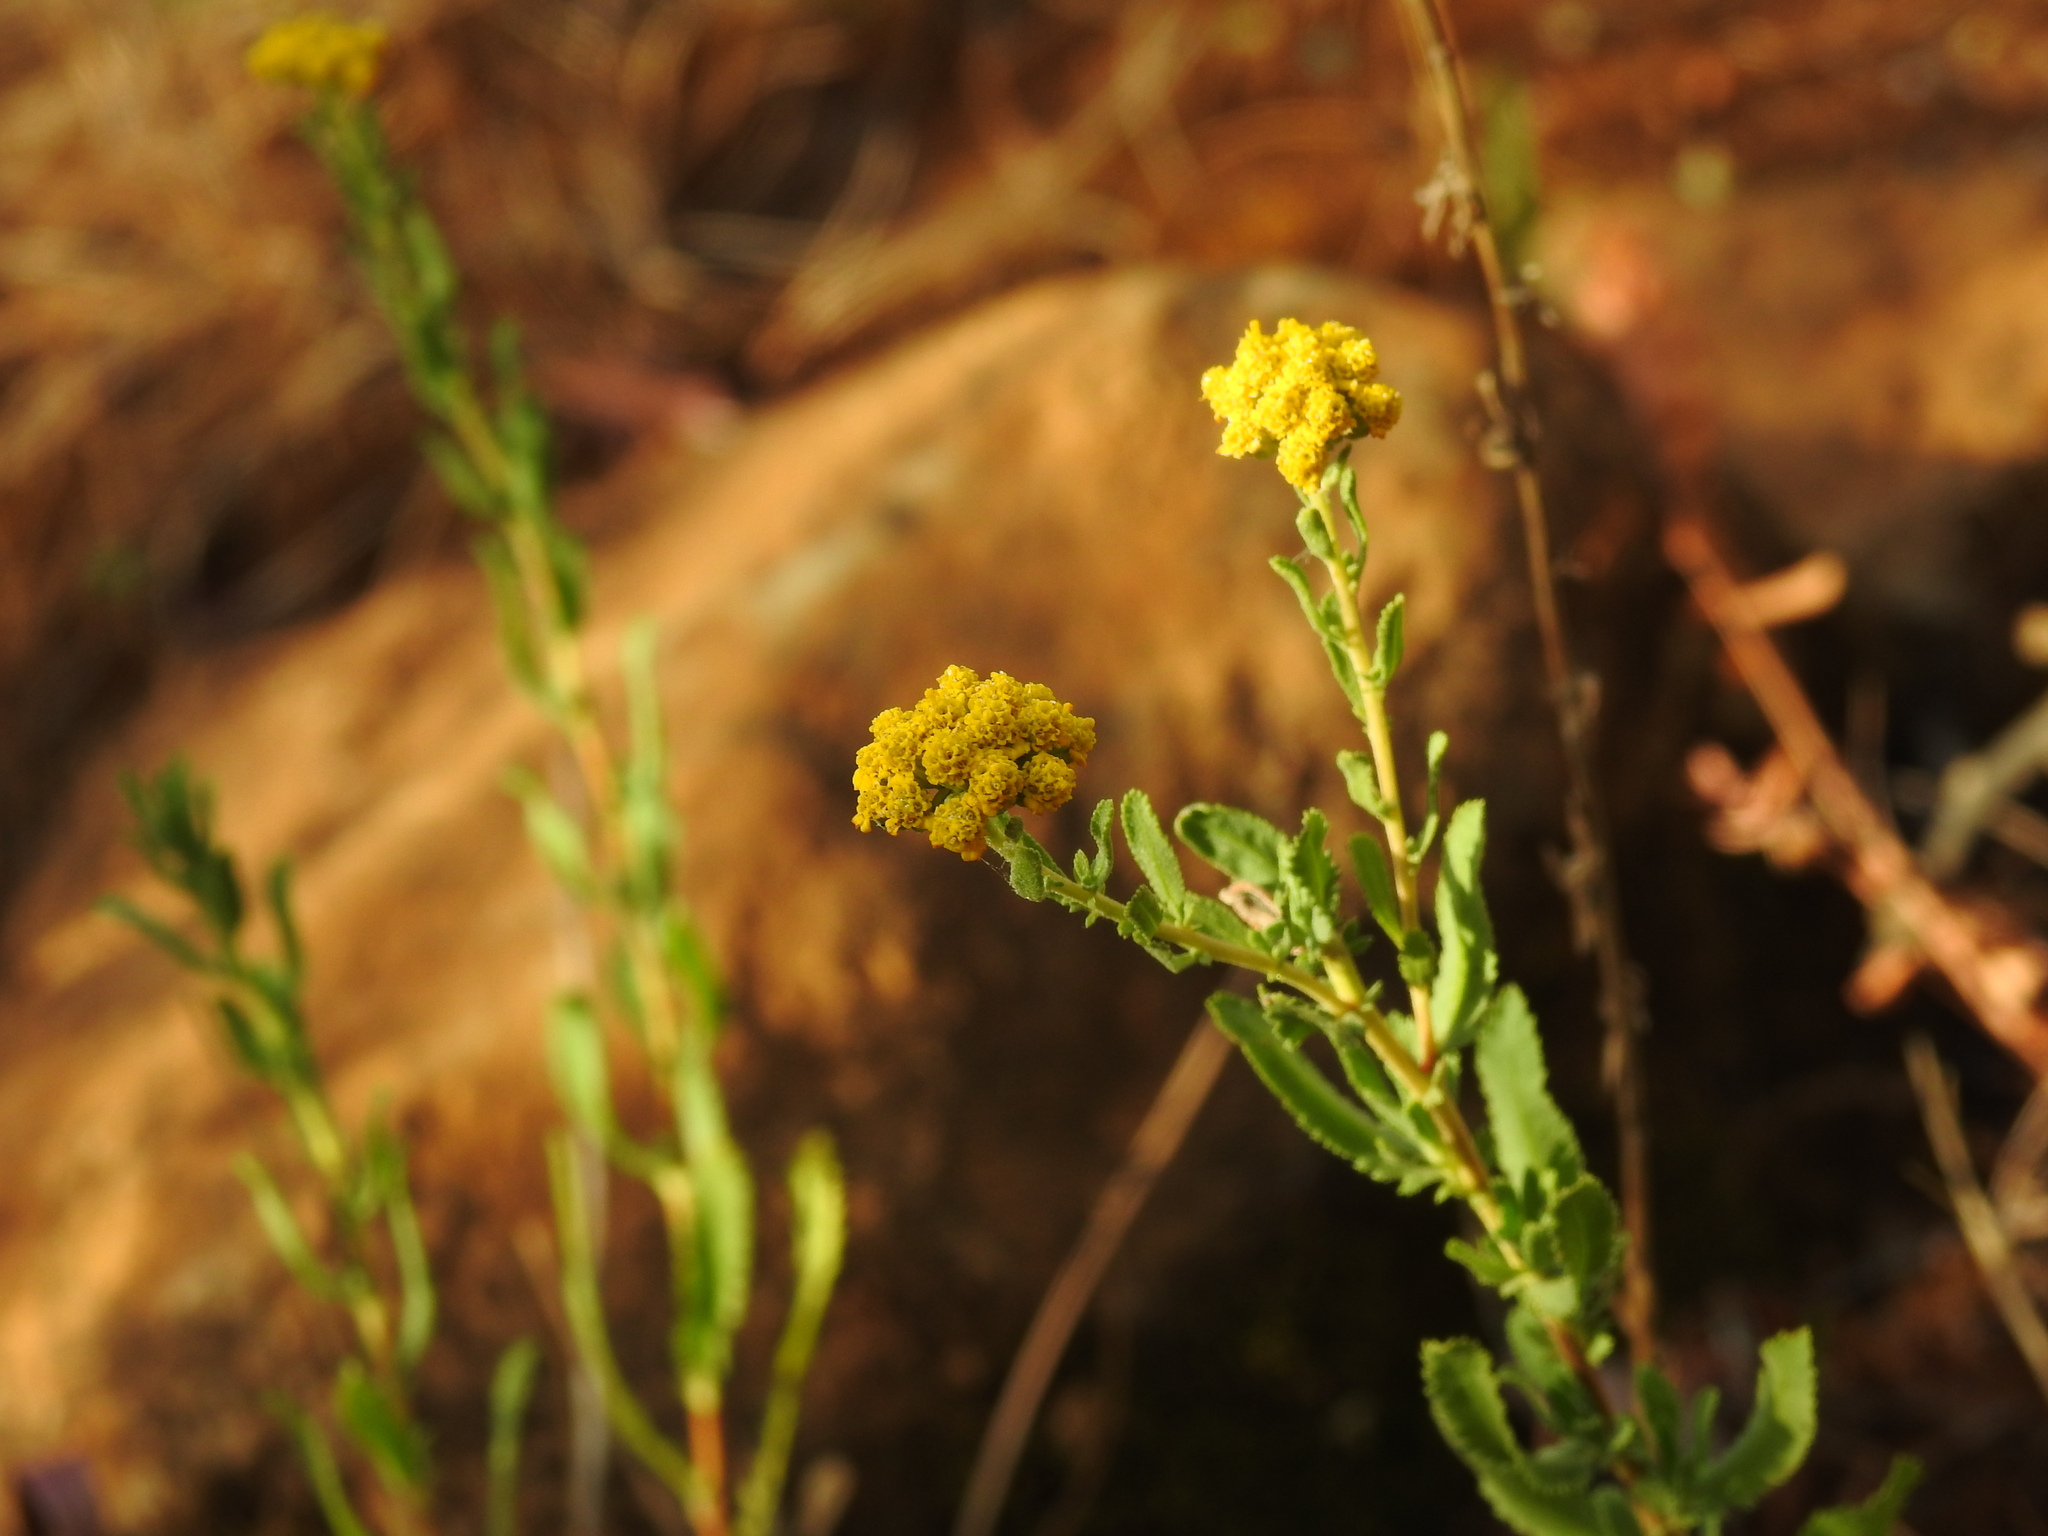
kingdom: Plantae
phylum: Tracheophyta
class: Magnoliopsida
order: Asterales
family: Asteraceae
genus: Achillea
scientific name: Achillea ageratum
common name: Sweet-nancy
